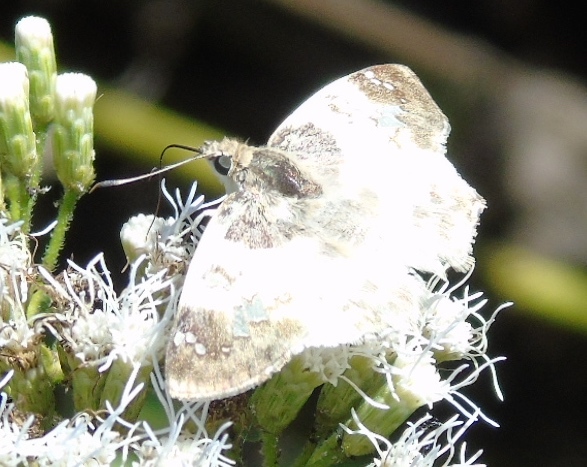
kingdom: Animalia
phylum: Arthropoda
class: Insecta
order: Lepidoptera
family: Hesperiidae
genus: Polyctor
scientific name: Polyctor cleta
